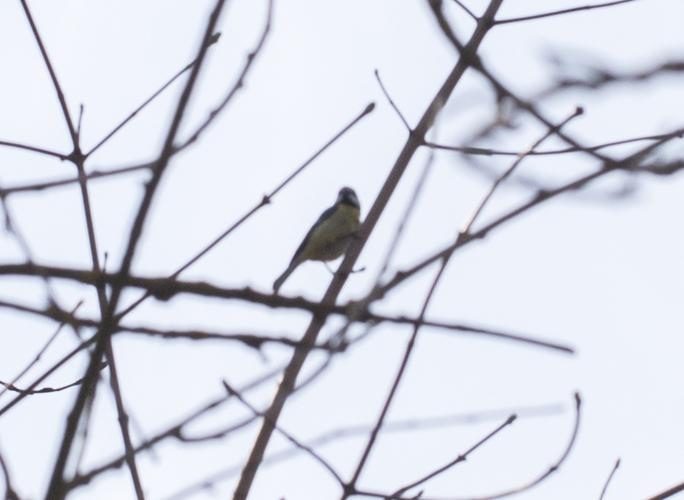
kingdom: Animalia
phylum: Chordata
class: Aves
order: Passeriformes
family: Paridae
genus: Cyanistes
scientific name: Cyanistes caeruleus
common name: Eurasian blue tit
